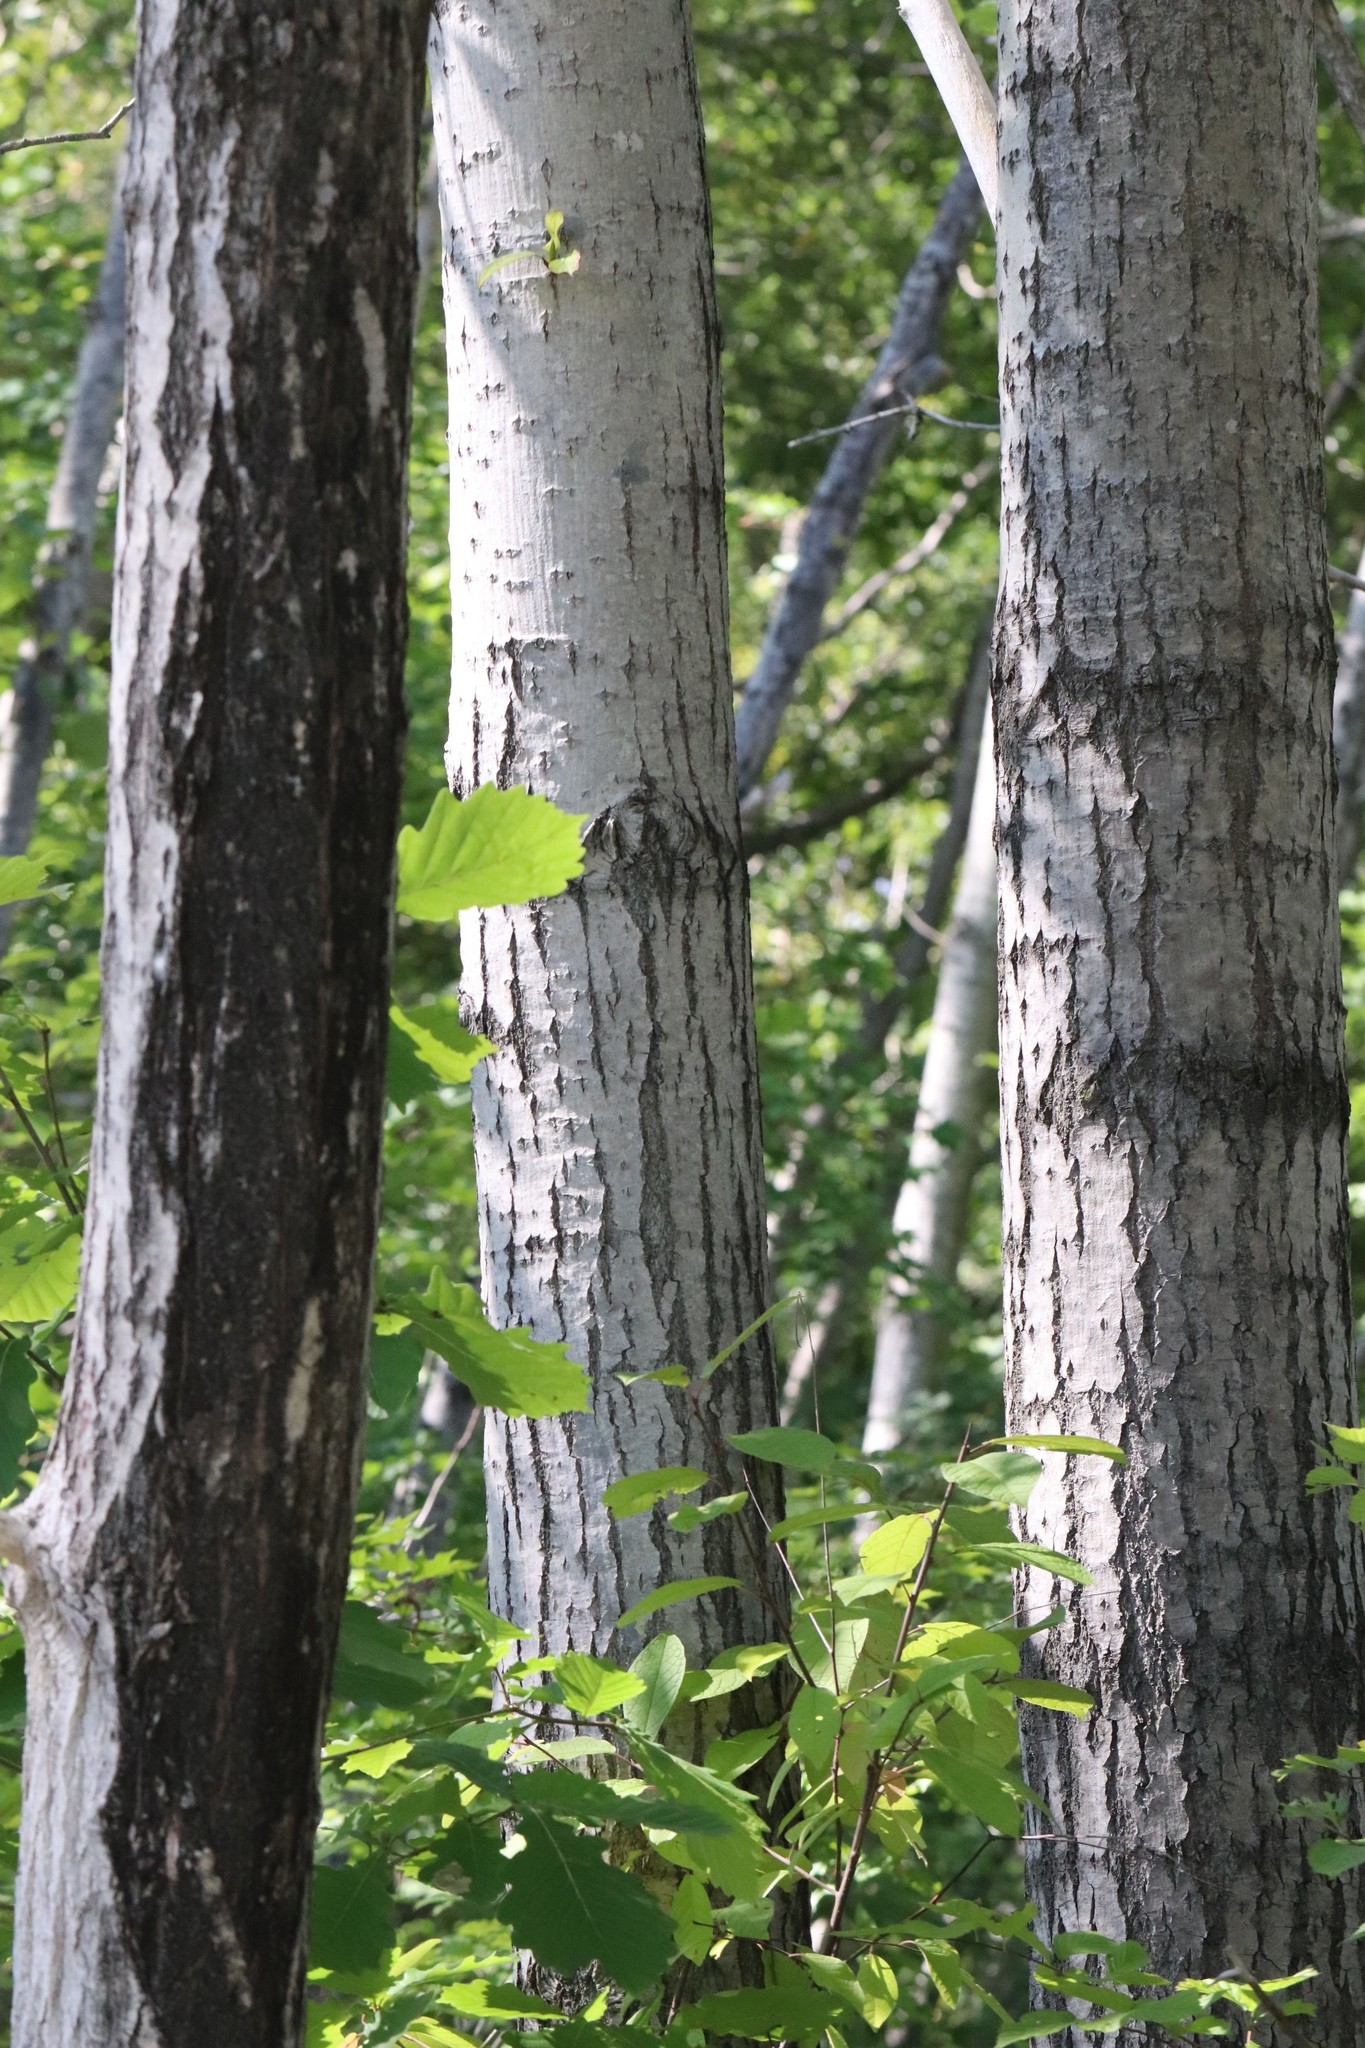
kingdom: Plantae
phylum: Tracheophyta
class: Magnoliopsida
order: Malpighiales
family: Salicaceae
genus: Populus
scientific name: Populus suaveolens
